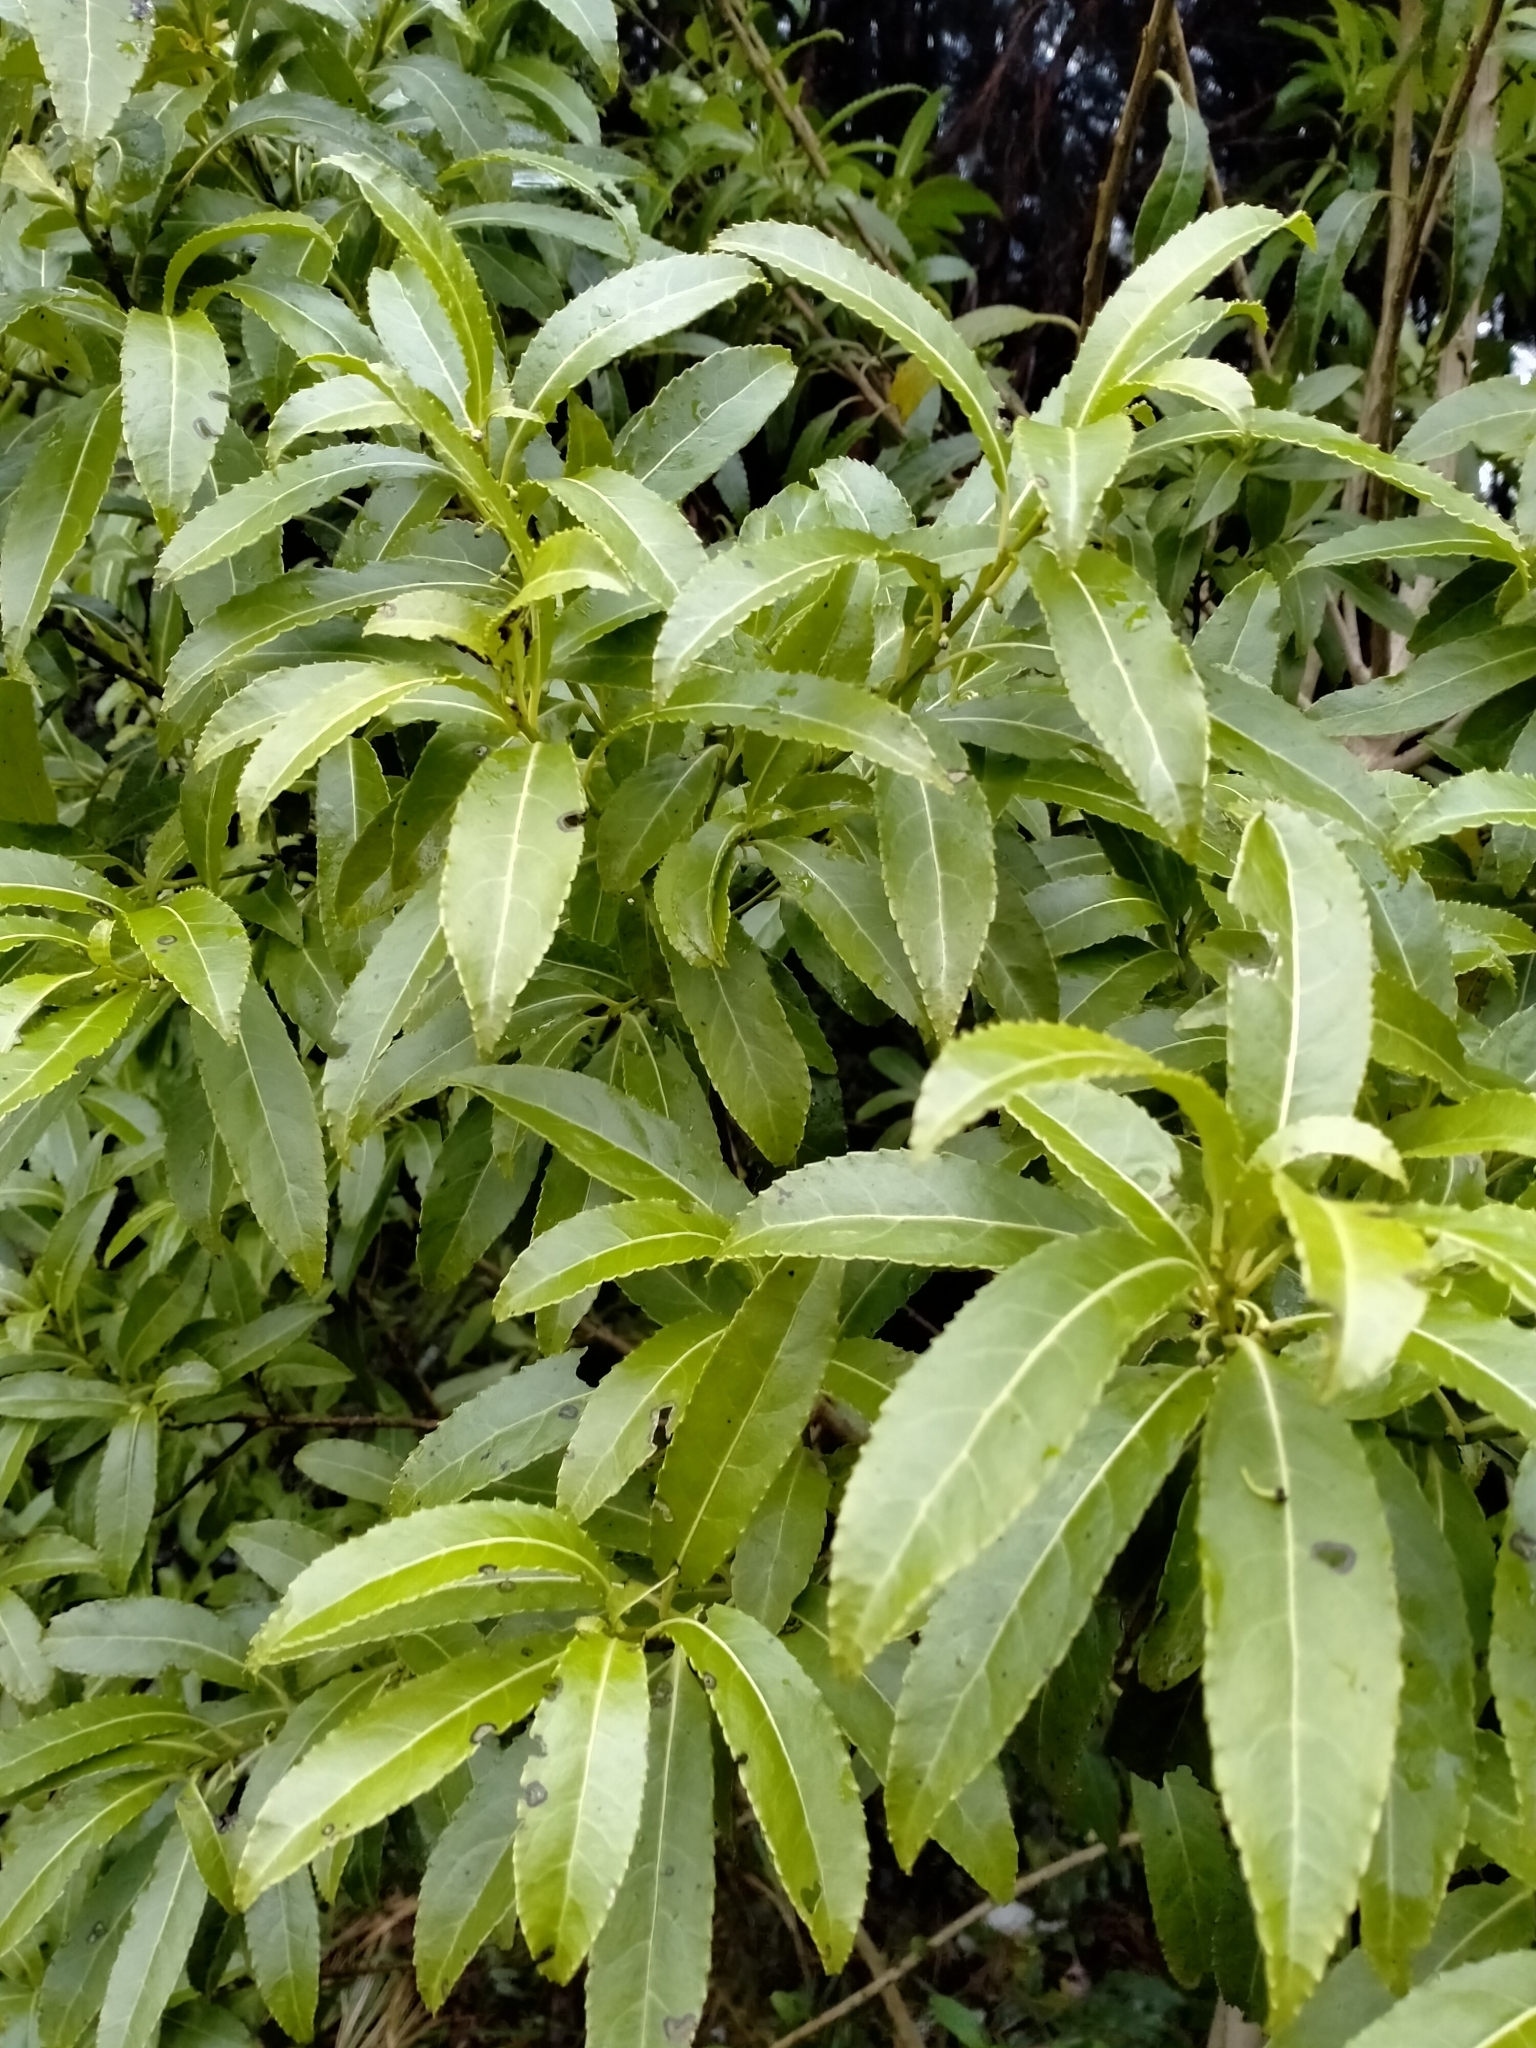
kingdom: Plantae
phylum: Tracheophyta
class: Magnoliopsida
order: Malpighiales
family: Violaceae
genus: Melicytus
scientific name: Melicytus lanceolatus
